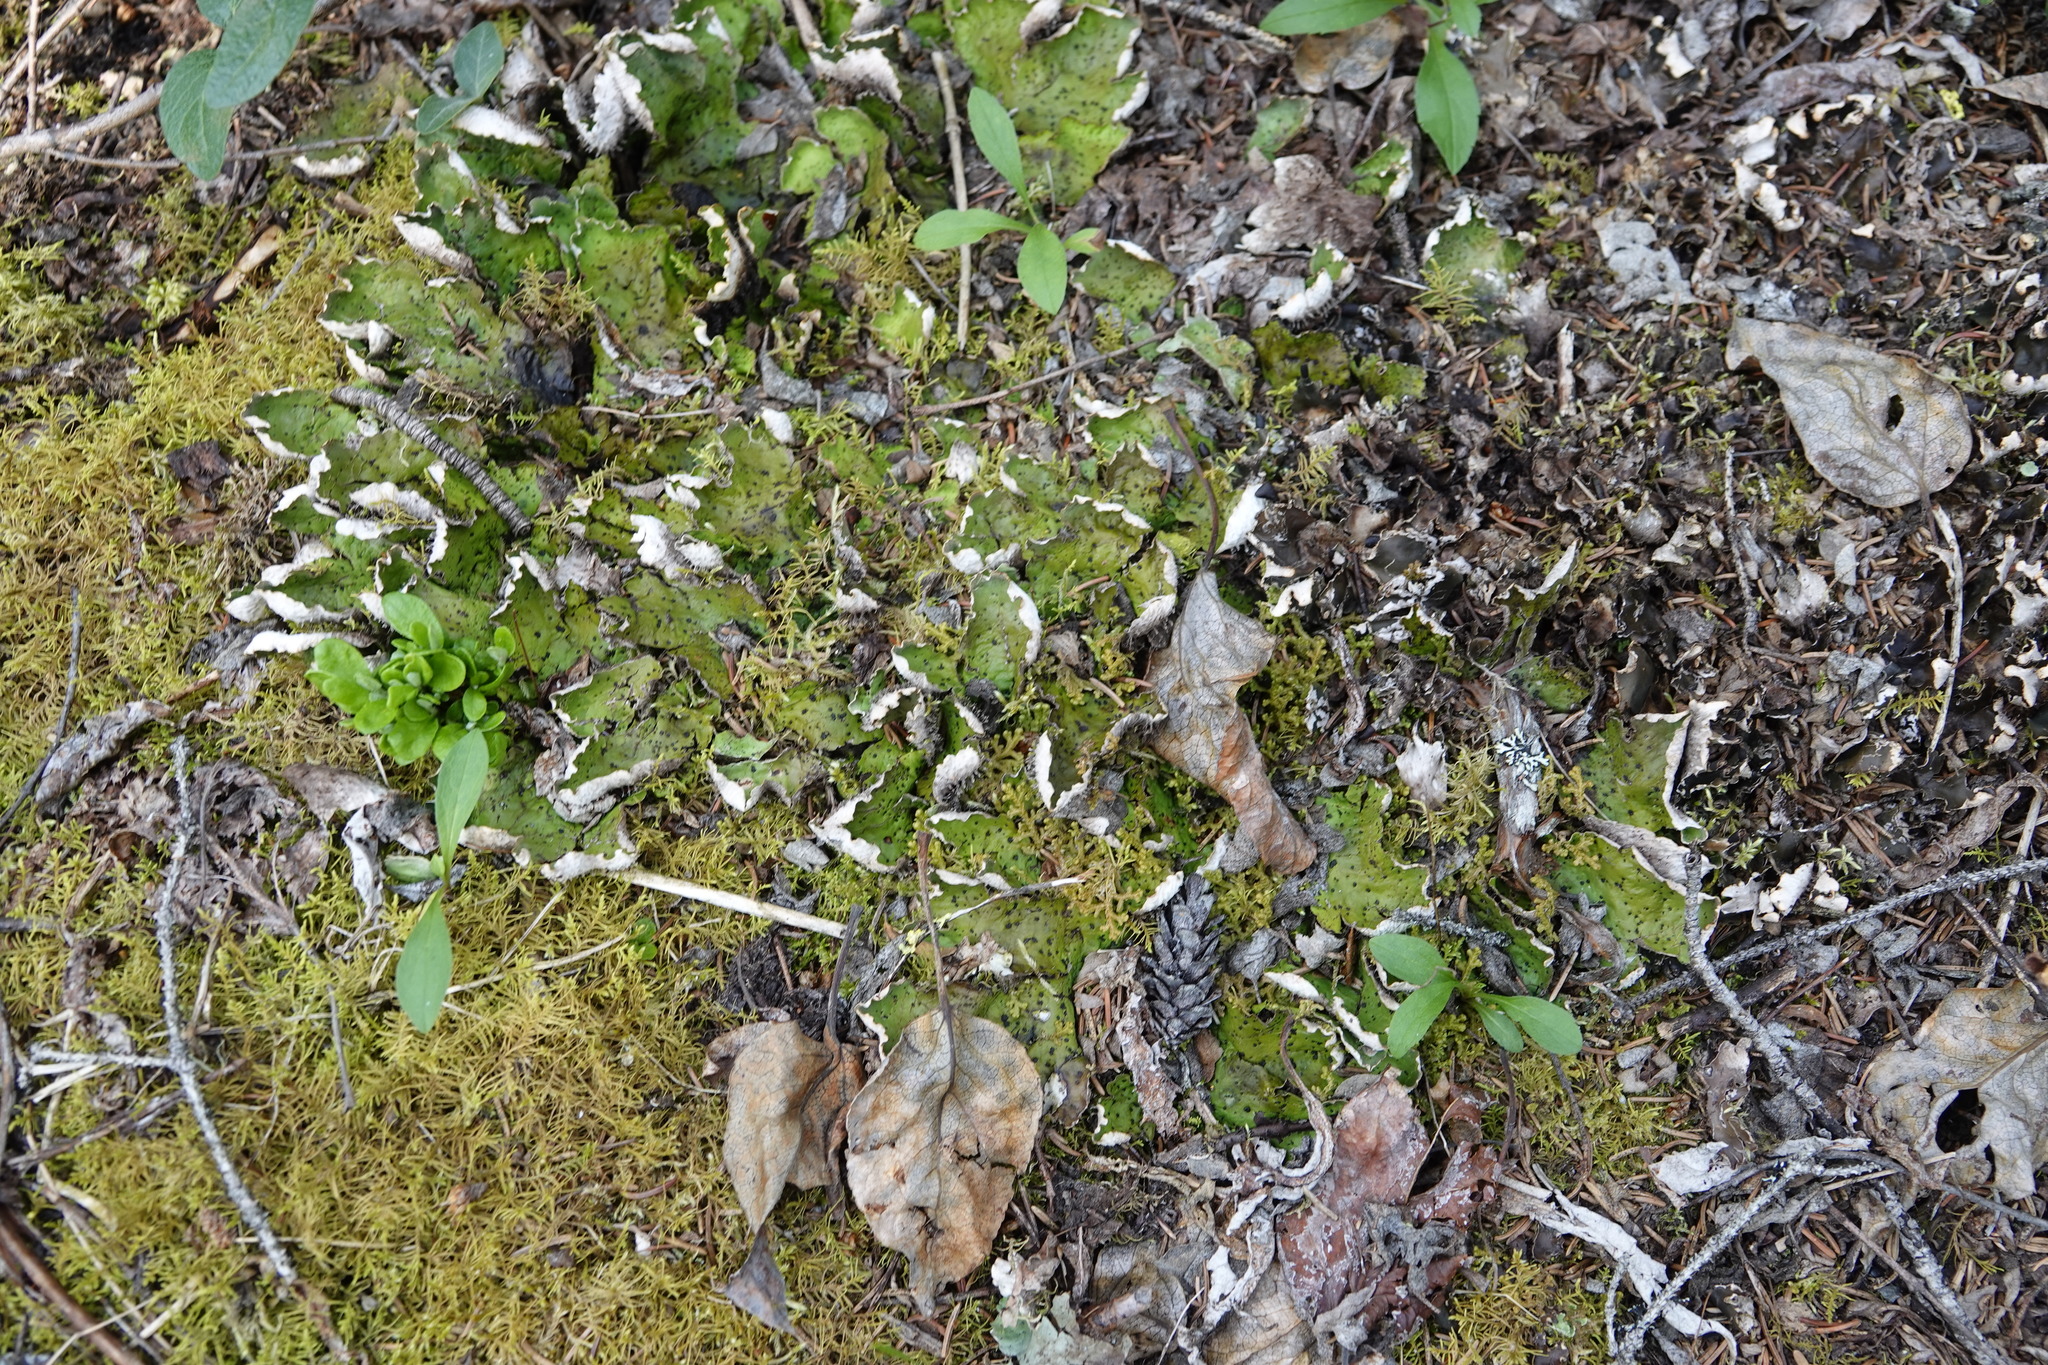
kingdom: Fungi
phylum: Ascomycota
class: Lecanoromycetes
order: Peltigerales
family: Peltigeraceae
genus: Peltigera
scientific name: Peltigera aphthosa
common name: Common freckle pelt lichen
